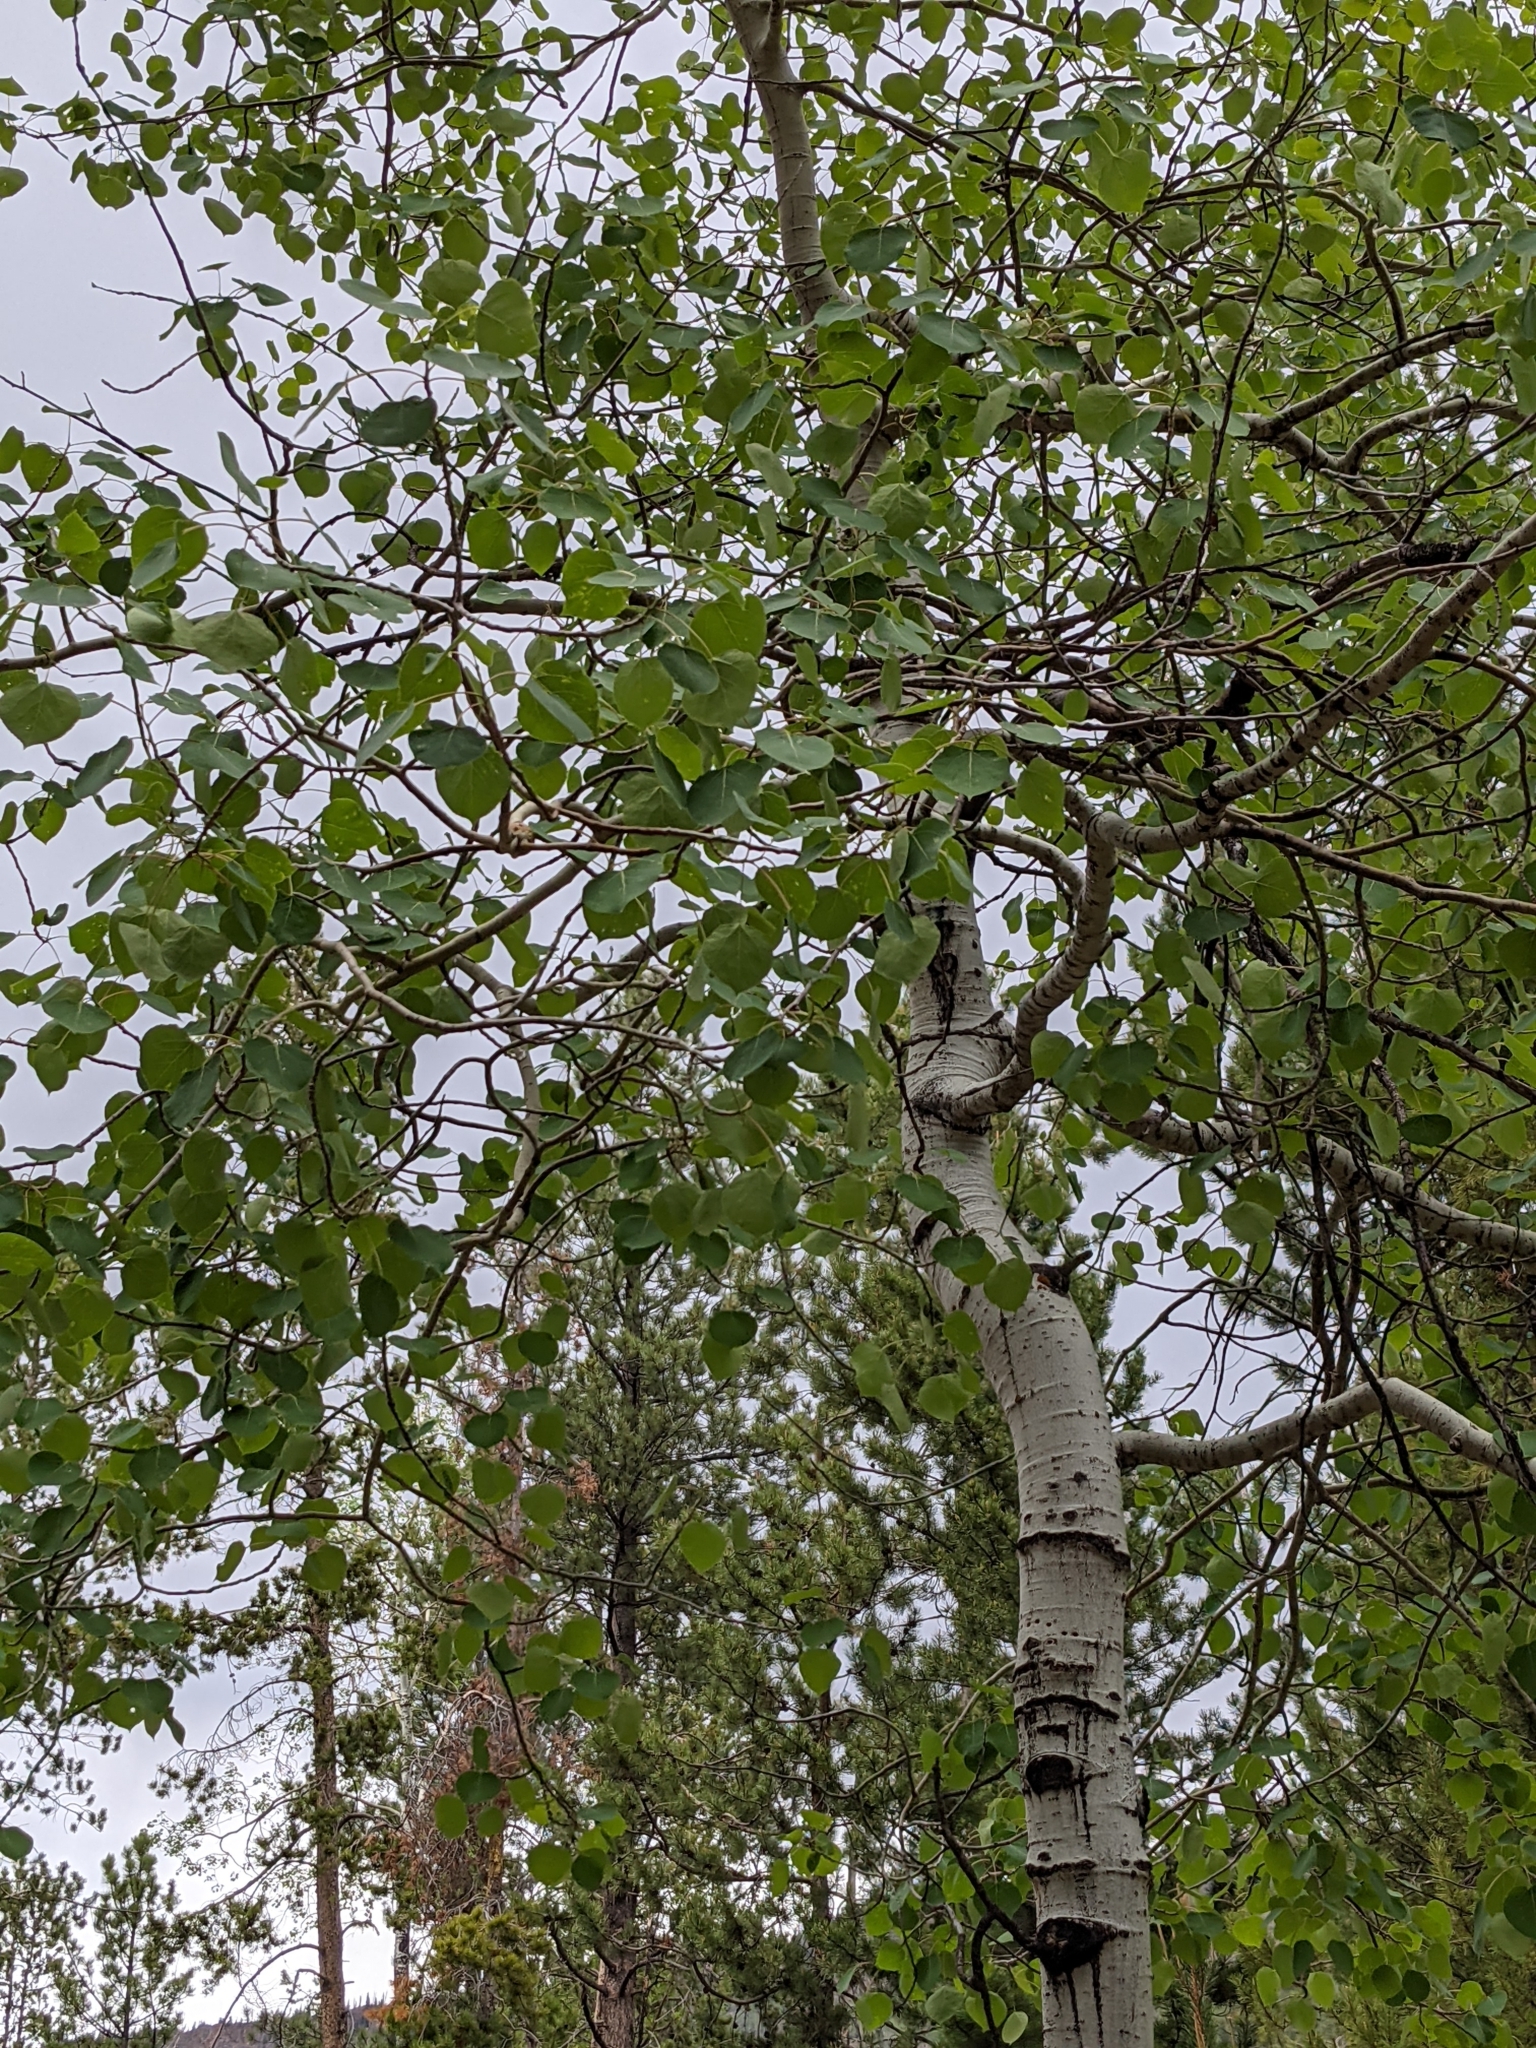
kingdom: Plantae
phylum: Tracheophyta
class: Magnoliopsida
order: Malpighiales
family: Salicaceae
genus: Populus
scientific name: Populus tremuloides
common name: Quaking aspen
